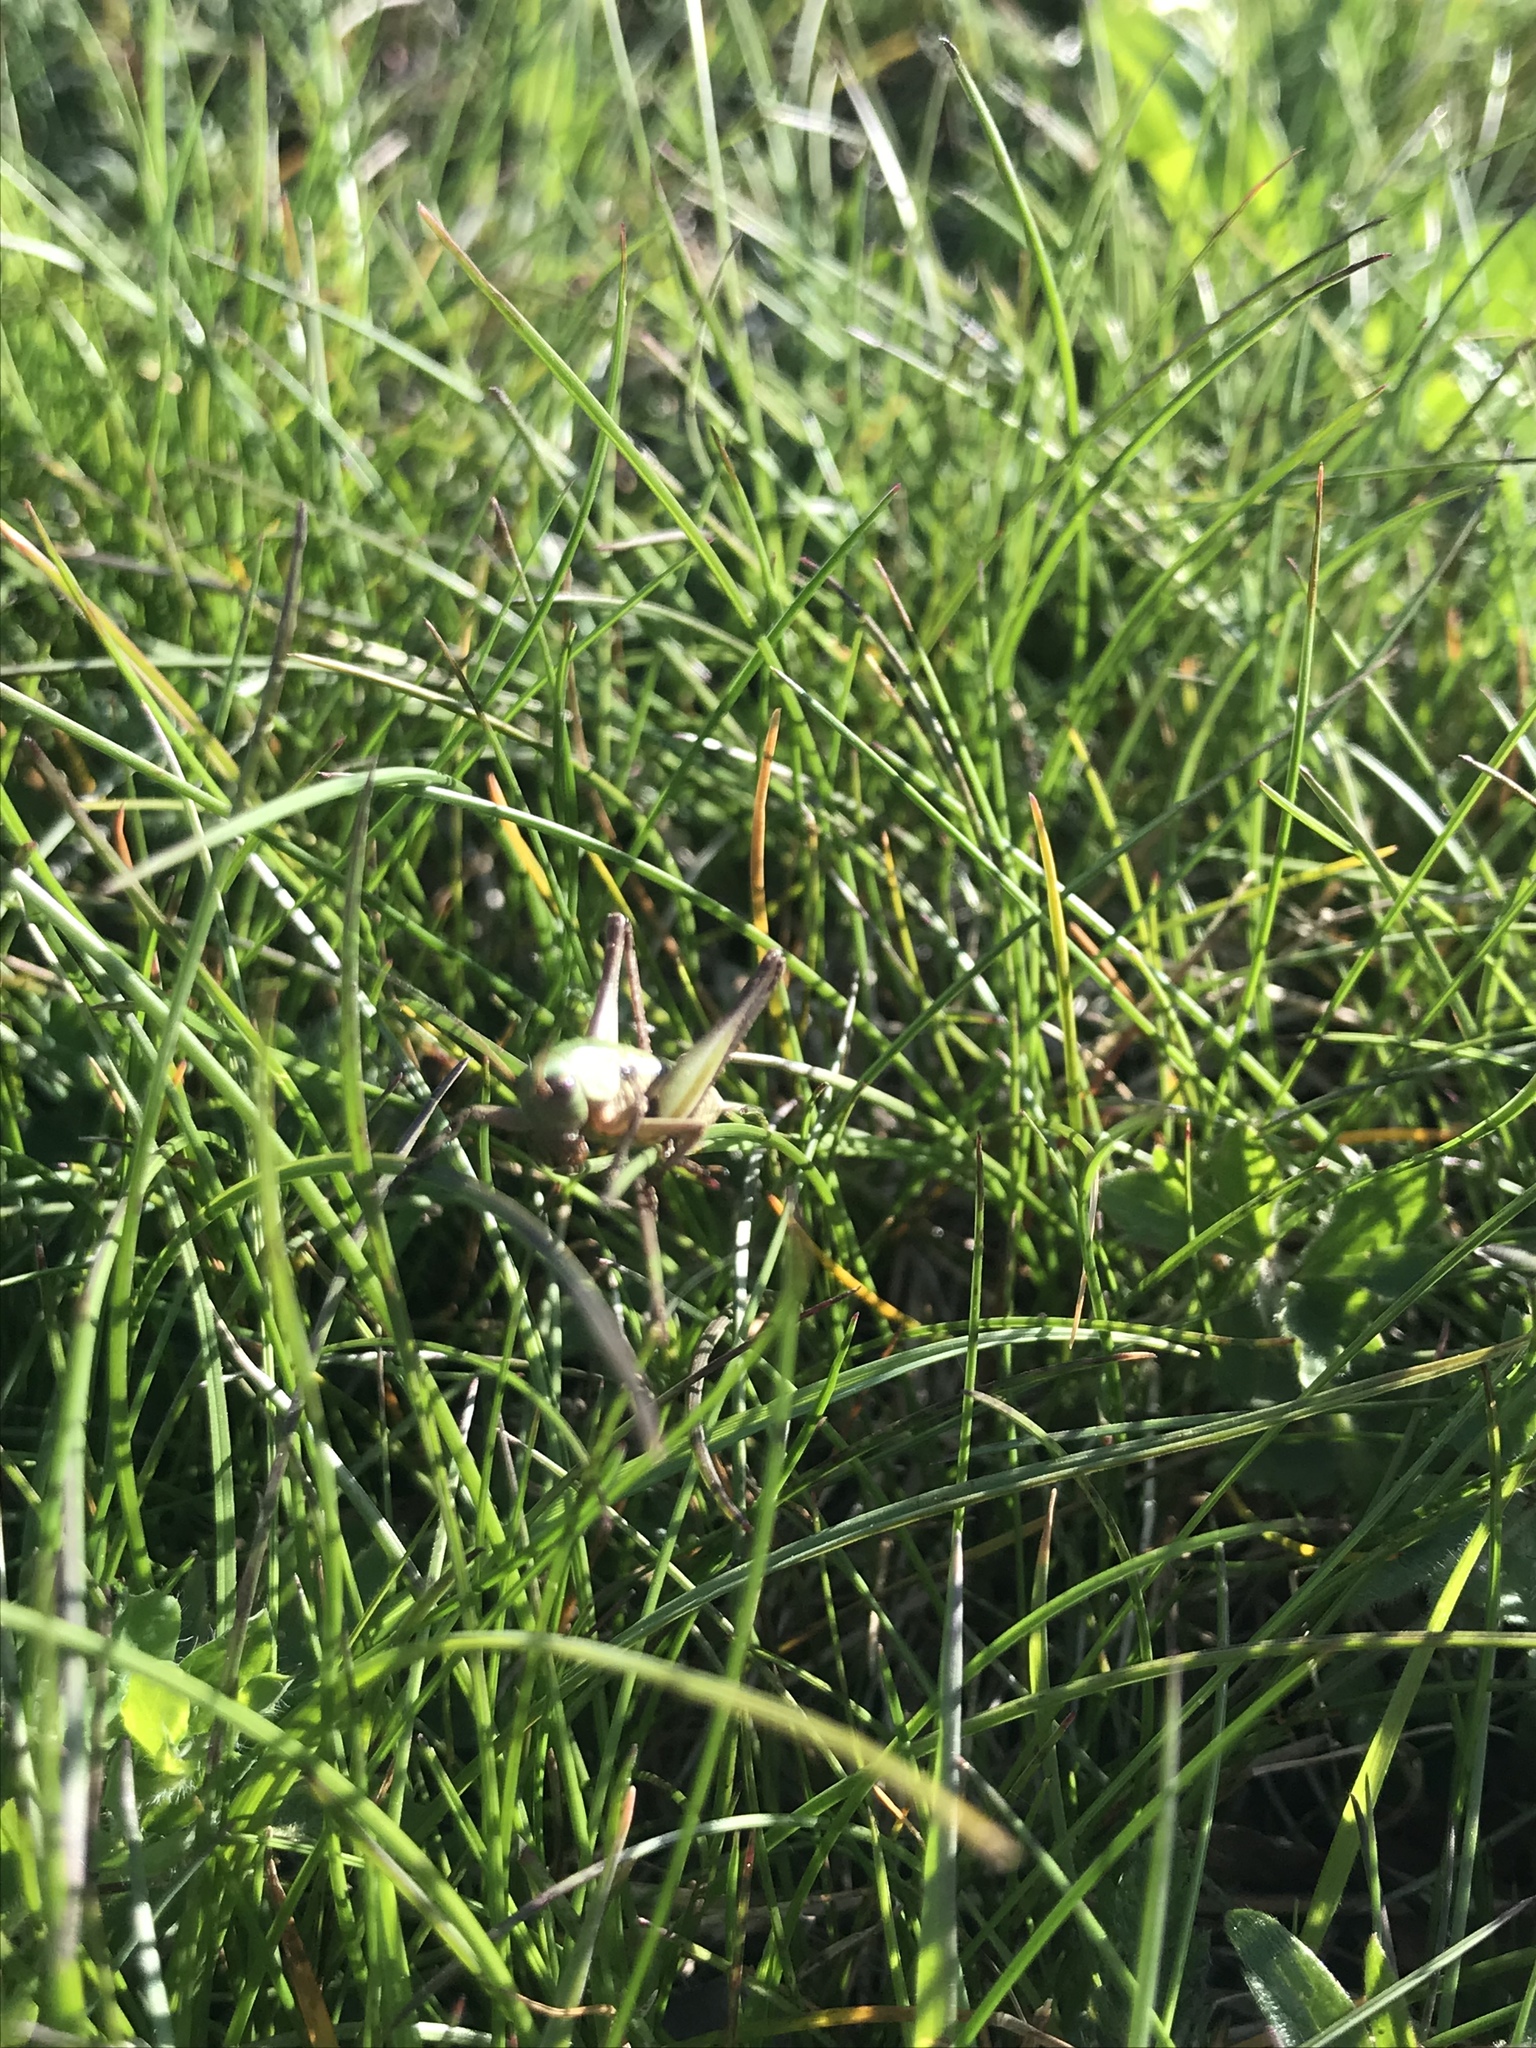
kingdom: Animalia
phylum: Arthropoda
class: Insecta
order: Orthoptera
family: Tettigoniidae
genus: Decticus
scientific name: Decticus verrucivorus
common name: Wart-biter
